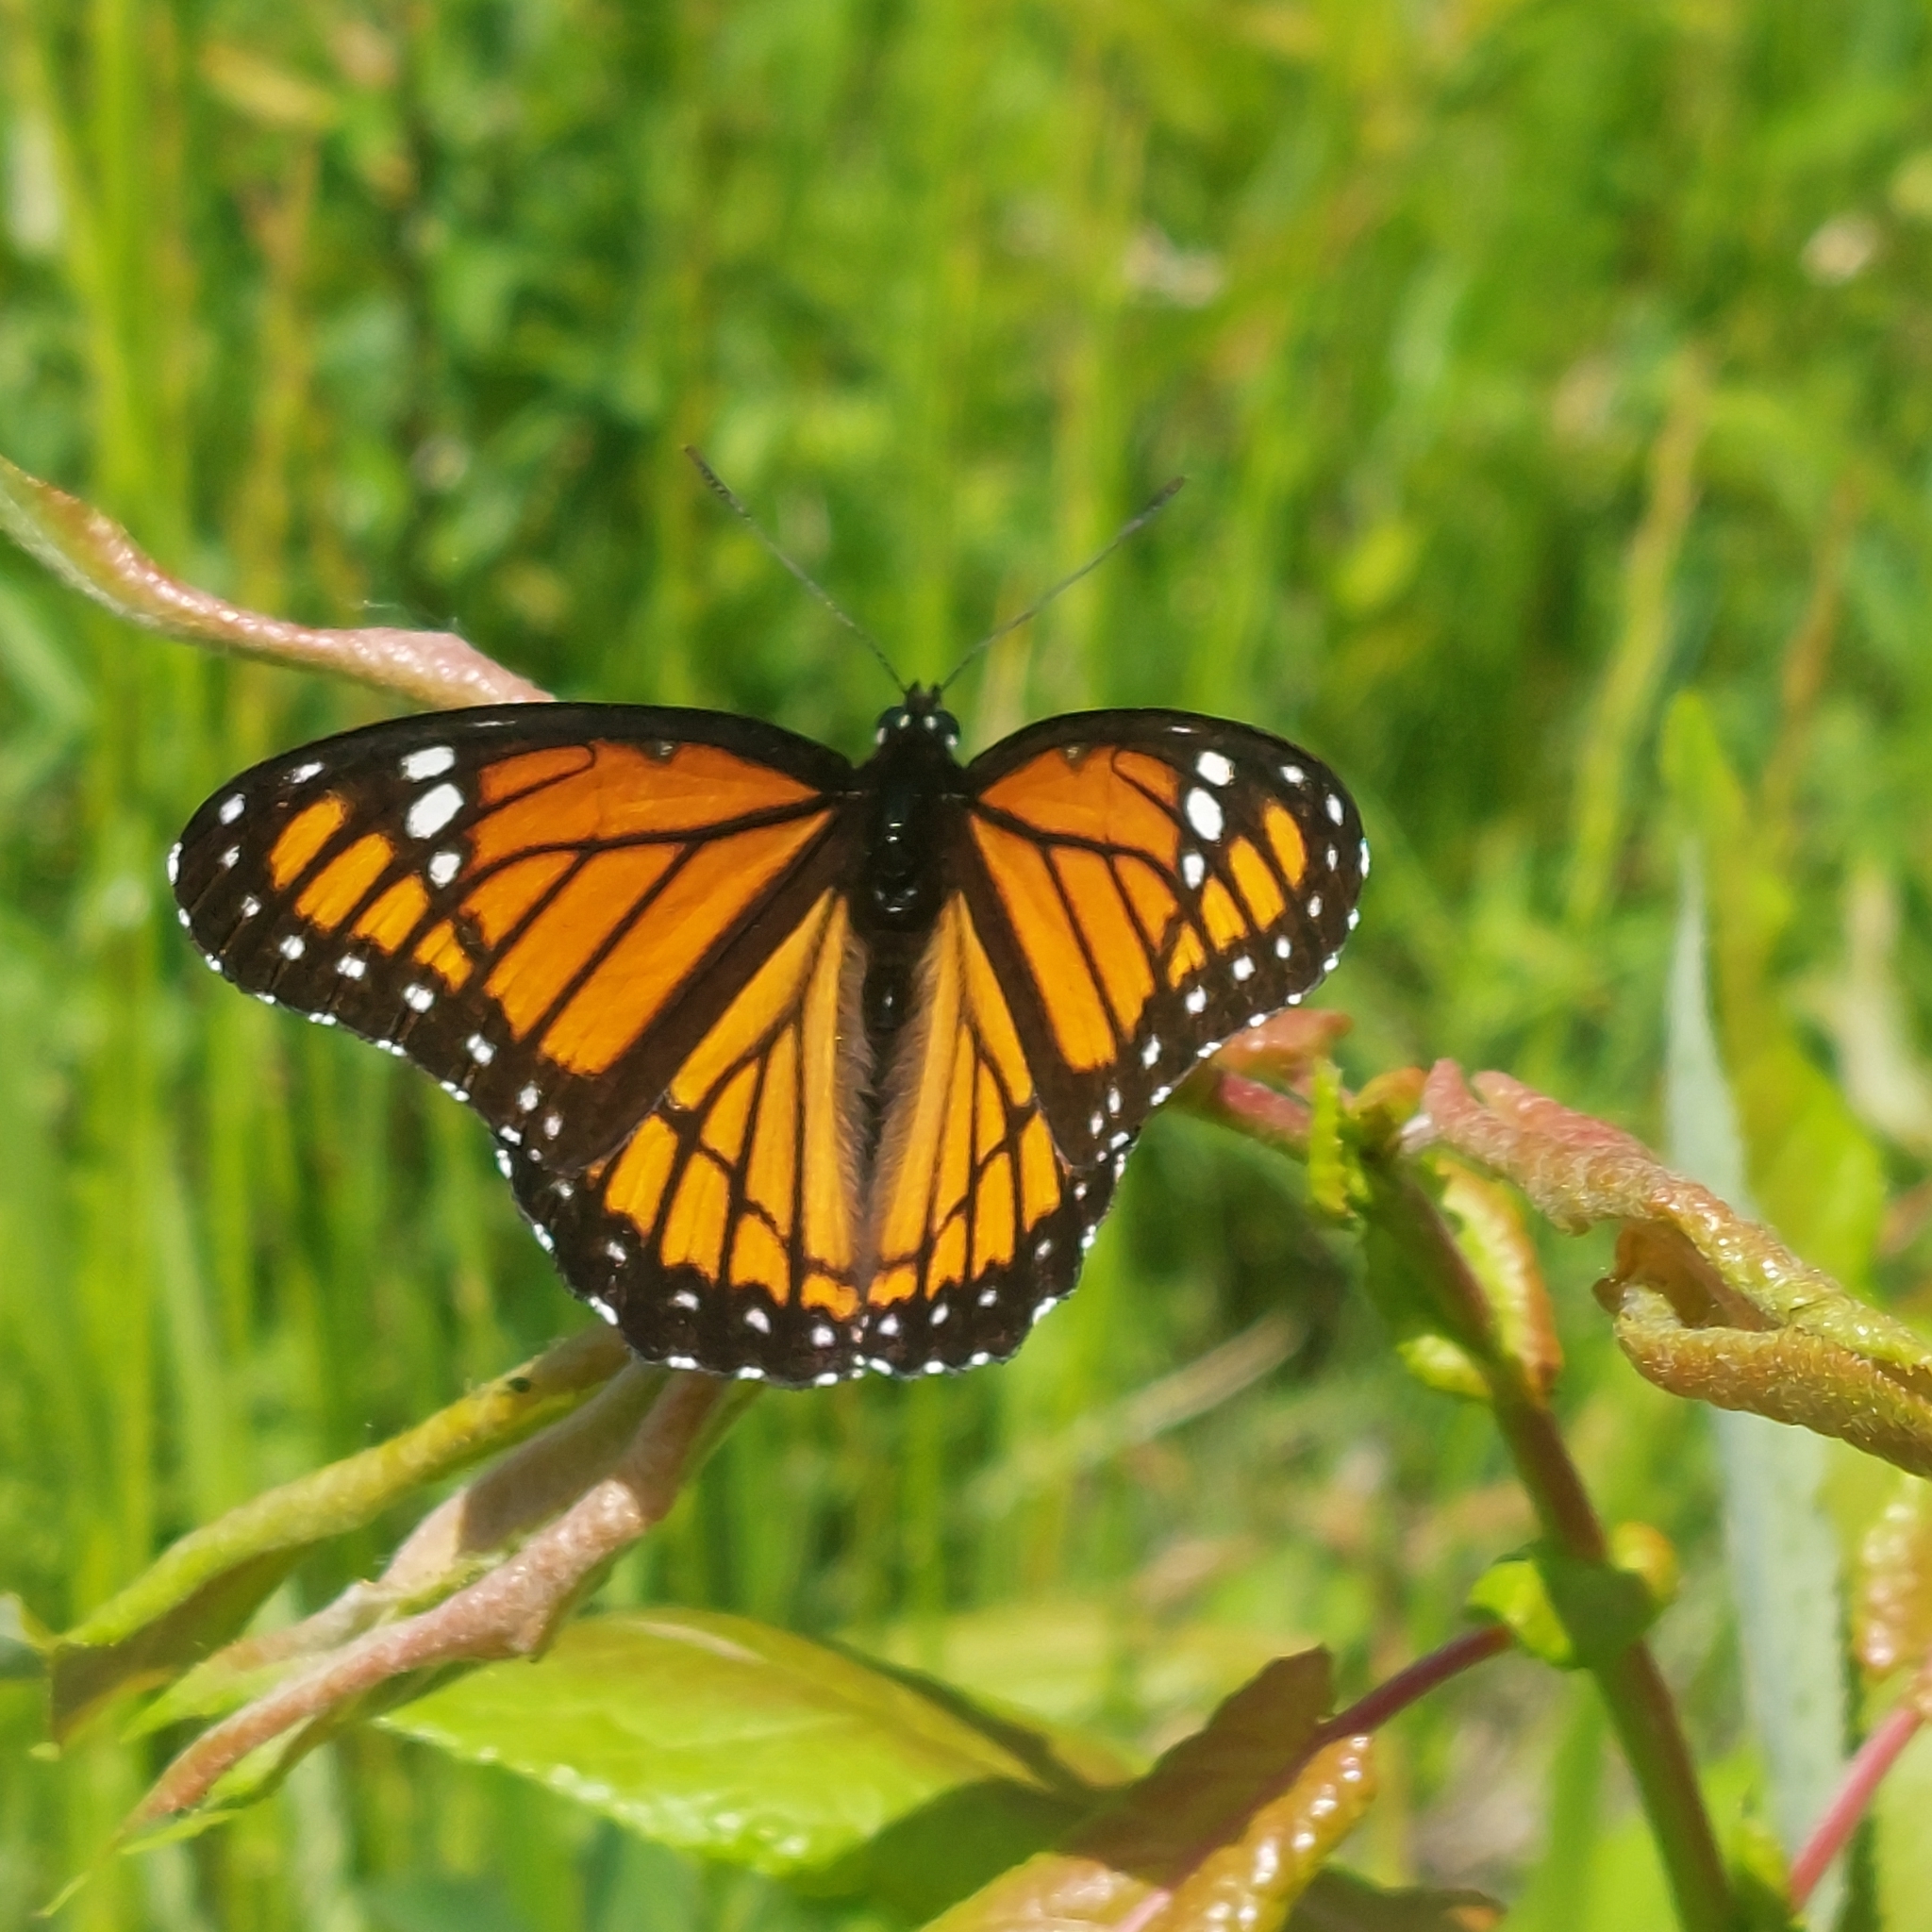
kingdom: Animalia
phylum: Arthropoda
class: Insecta
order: Lepidoptera
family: Nymphalidae
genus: Limenitis
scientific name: Limenitis archippus
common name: Viceroy
